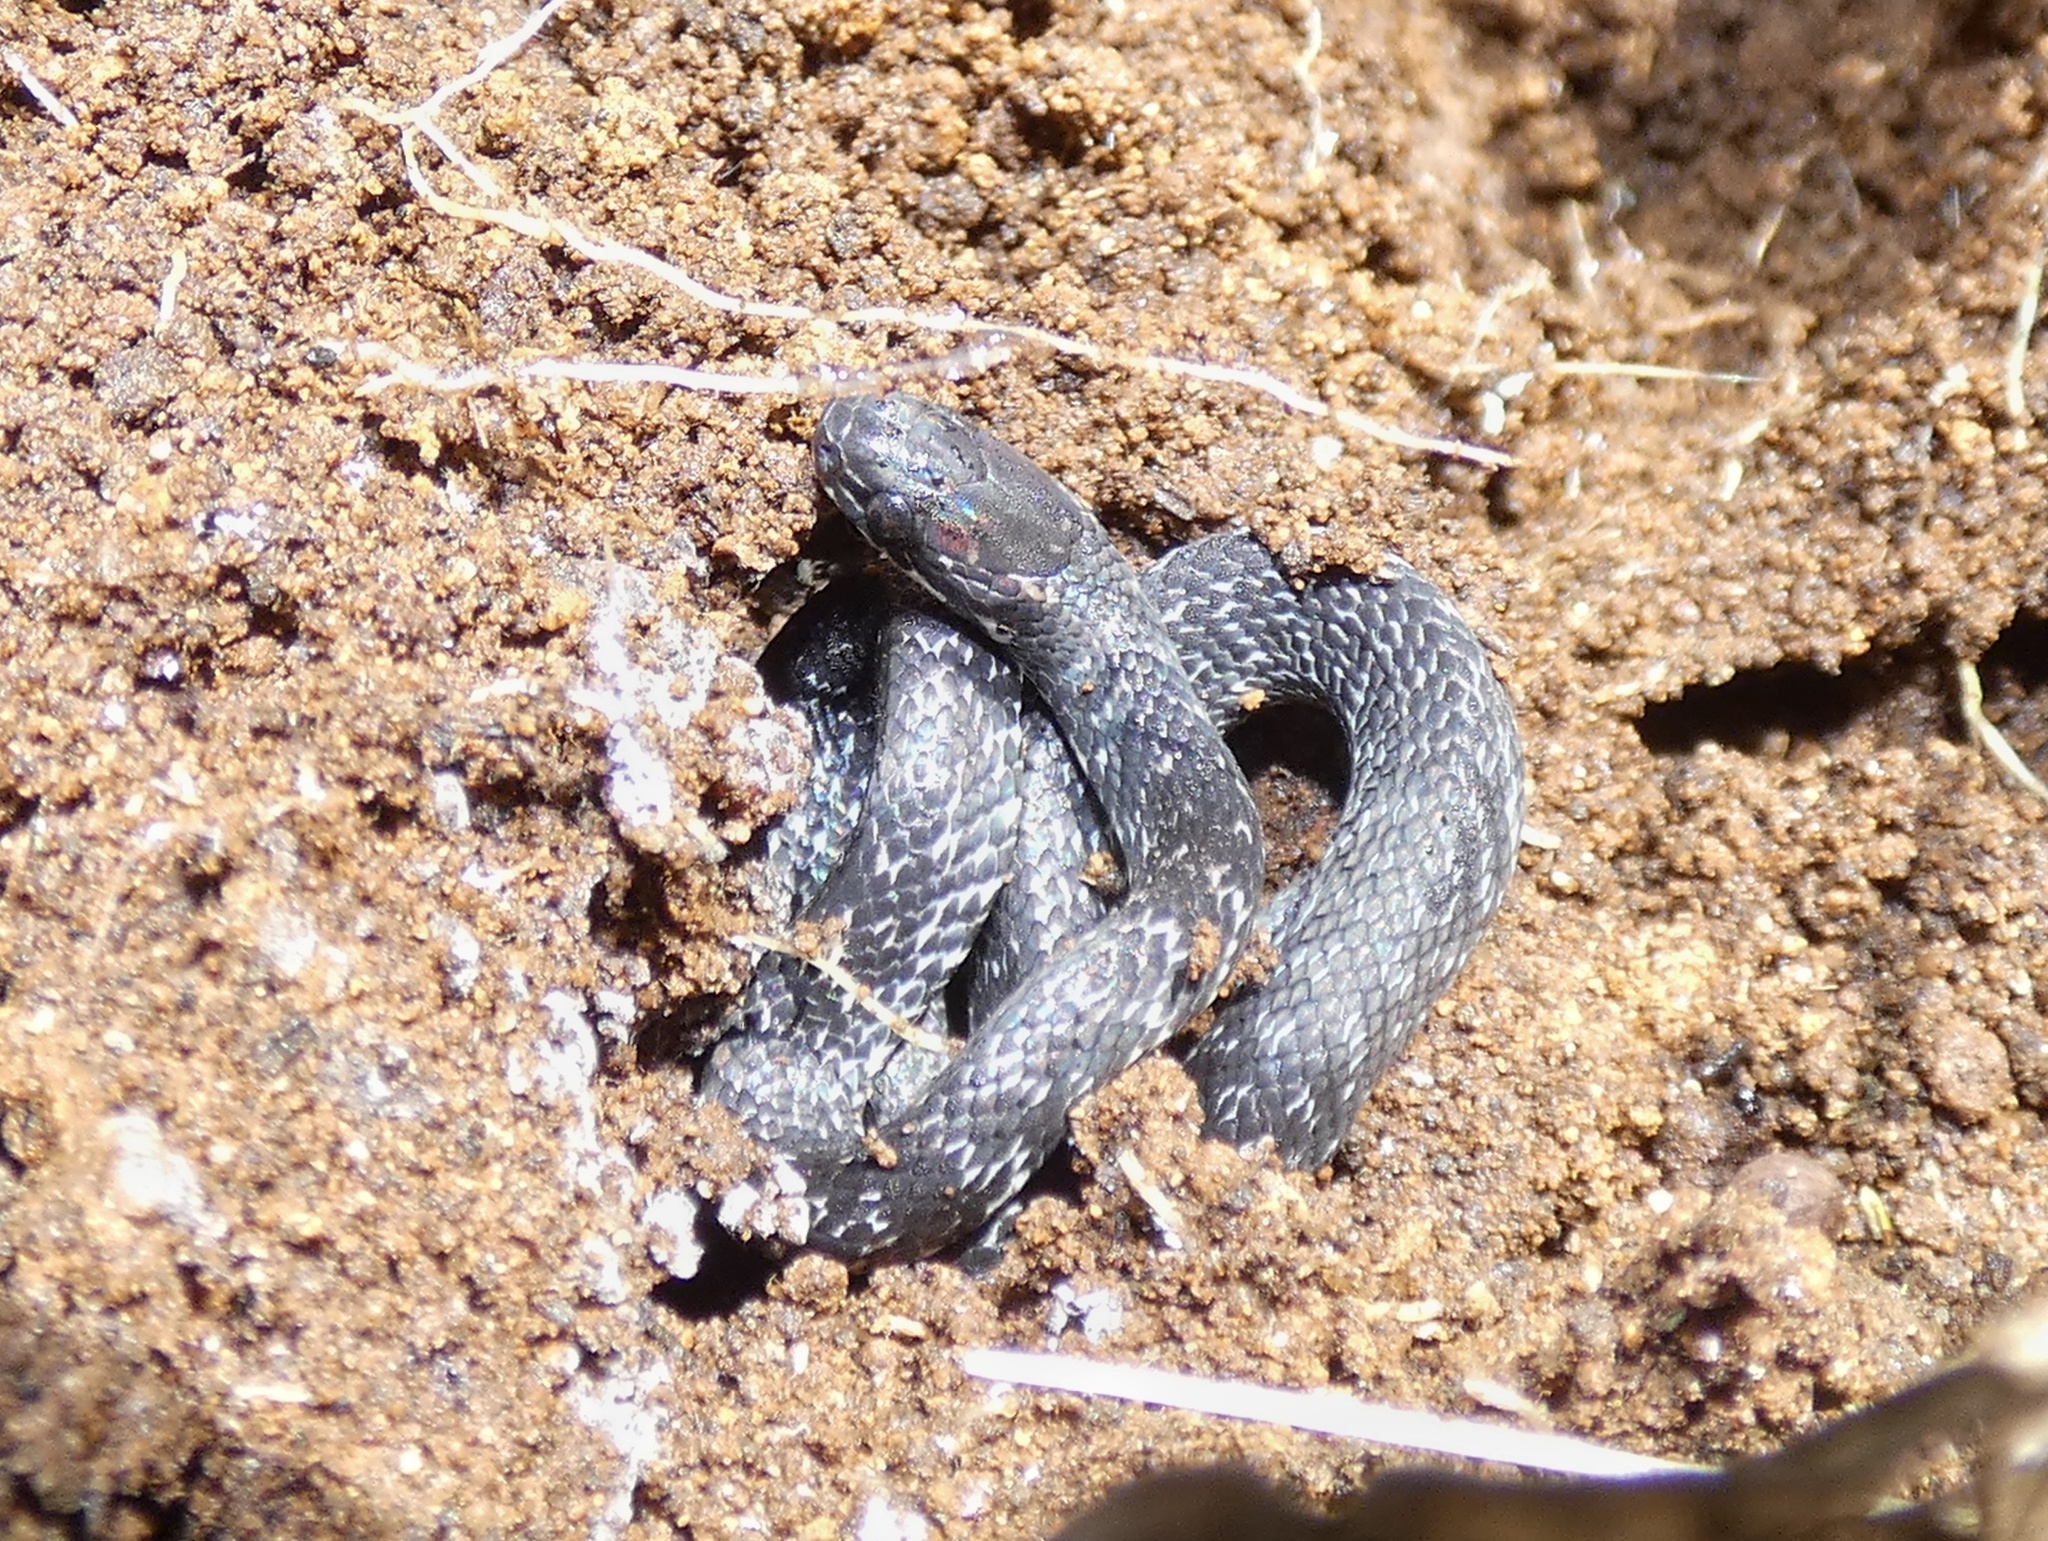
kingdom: Animalia
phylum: Chordata
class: Squamata
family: Colubridae
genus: Ninia
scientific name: Ninia psephota
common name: Cope's coffee snake
